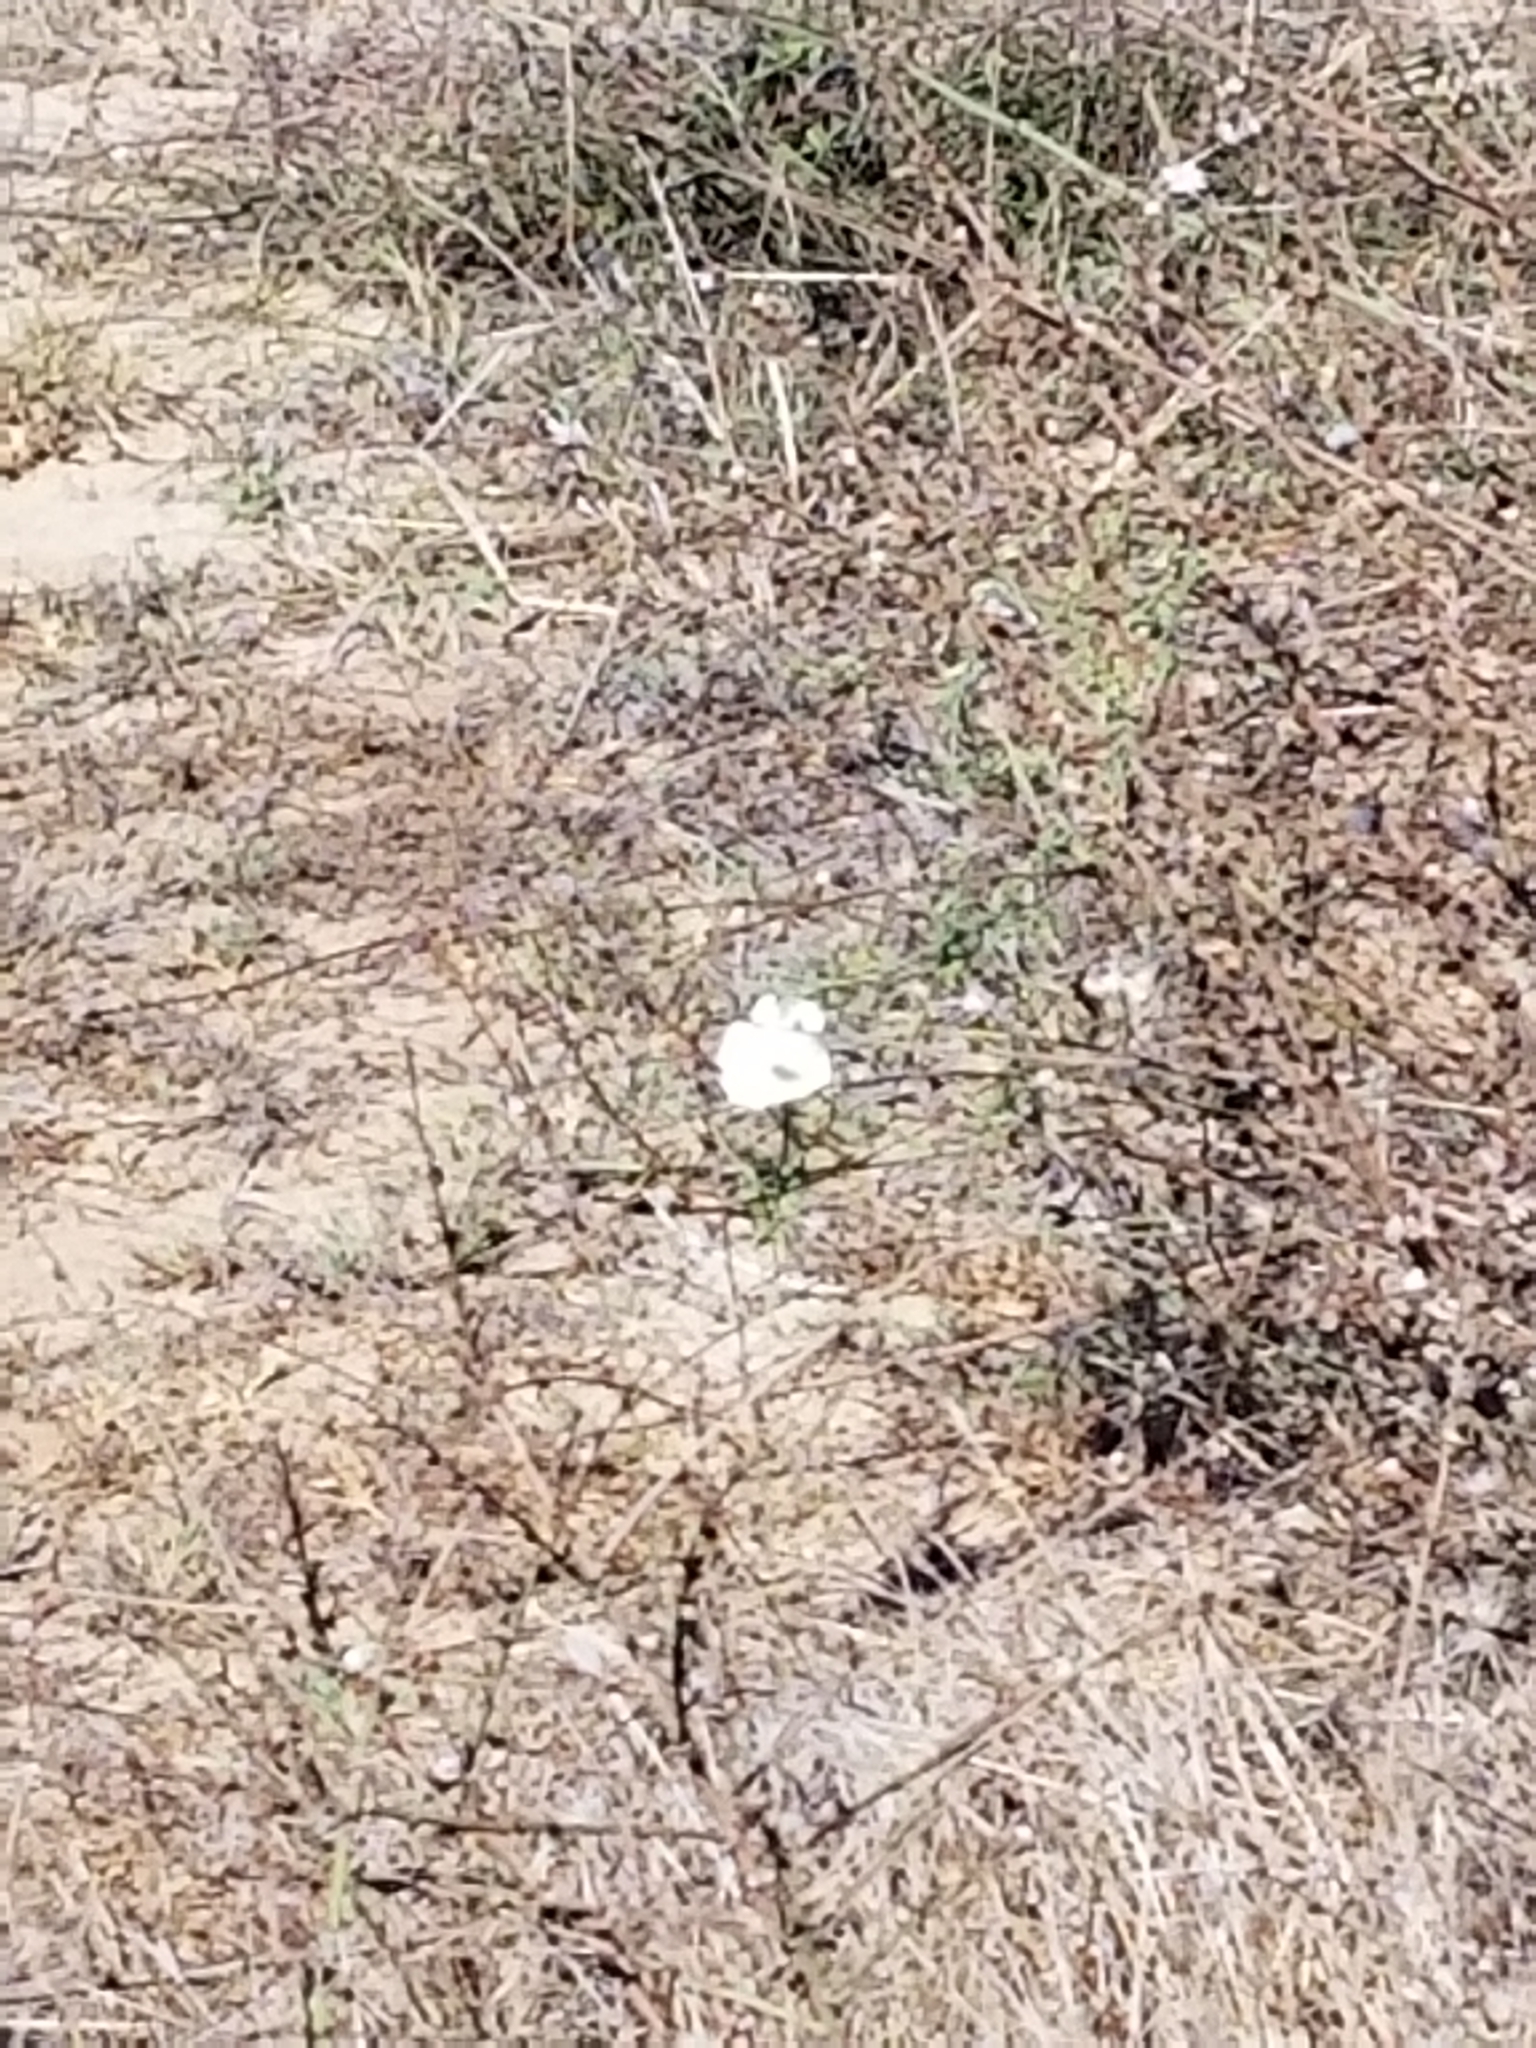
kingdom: Plantae
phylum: Tracheophyta
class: Magnoliopsida
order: Solanales
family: Convolvulaceae
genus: Calystegia
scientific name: Calystegia macrostegia
